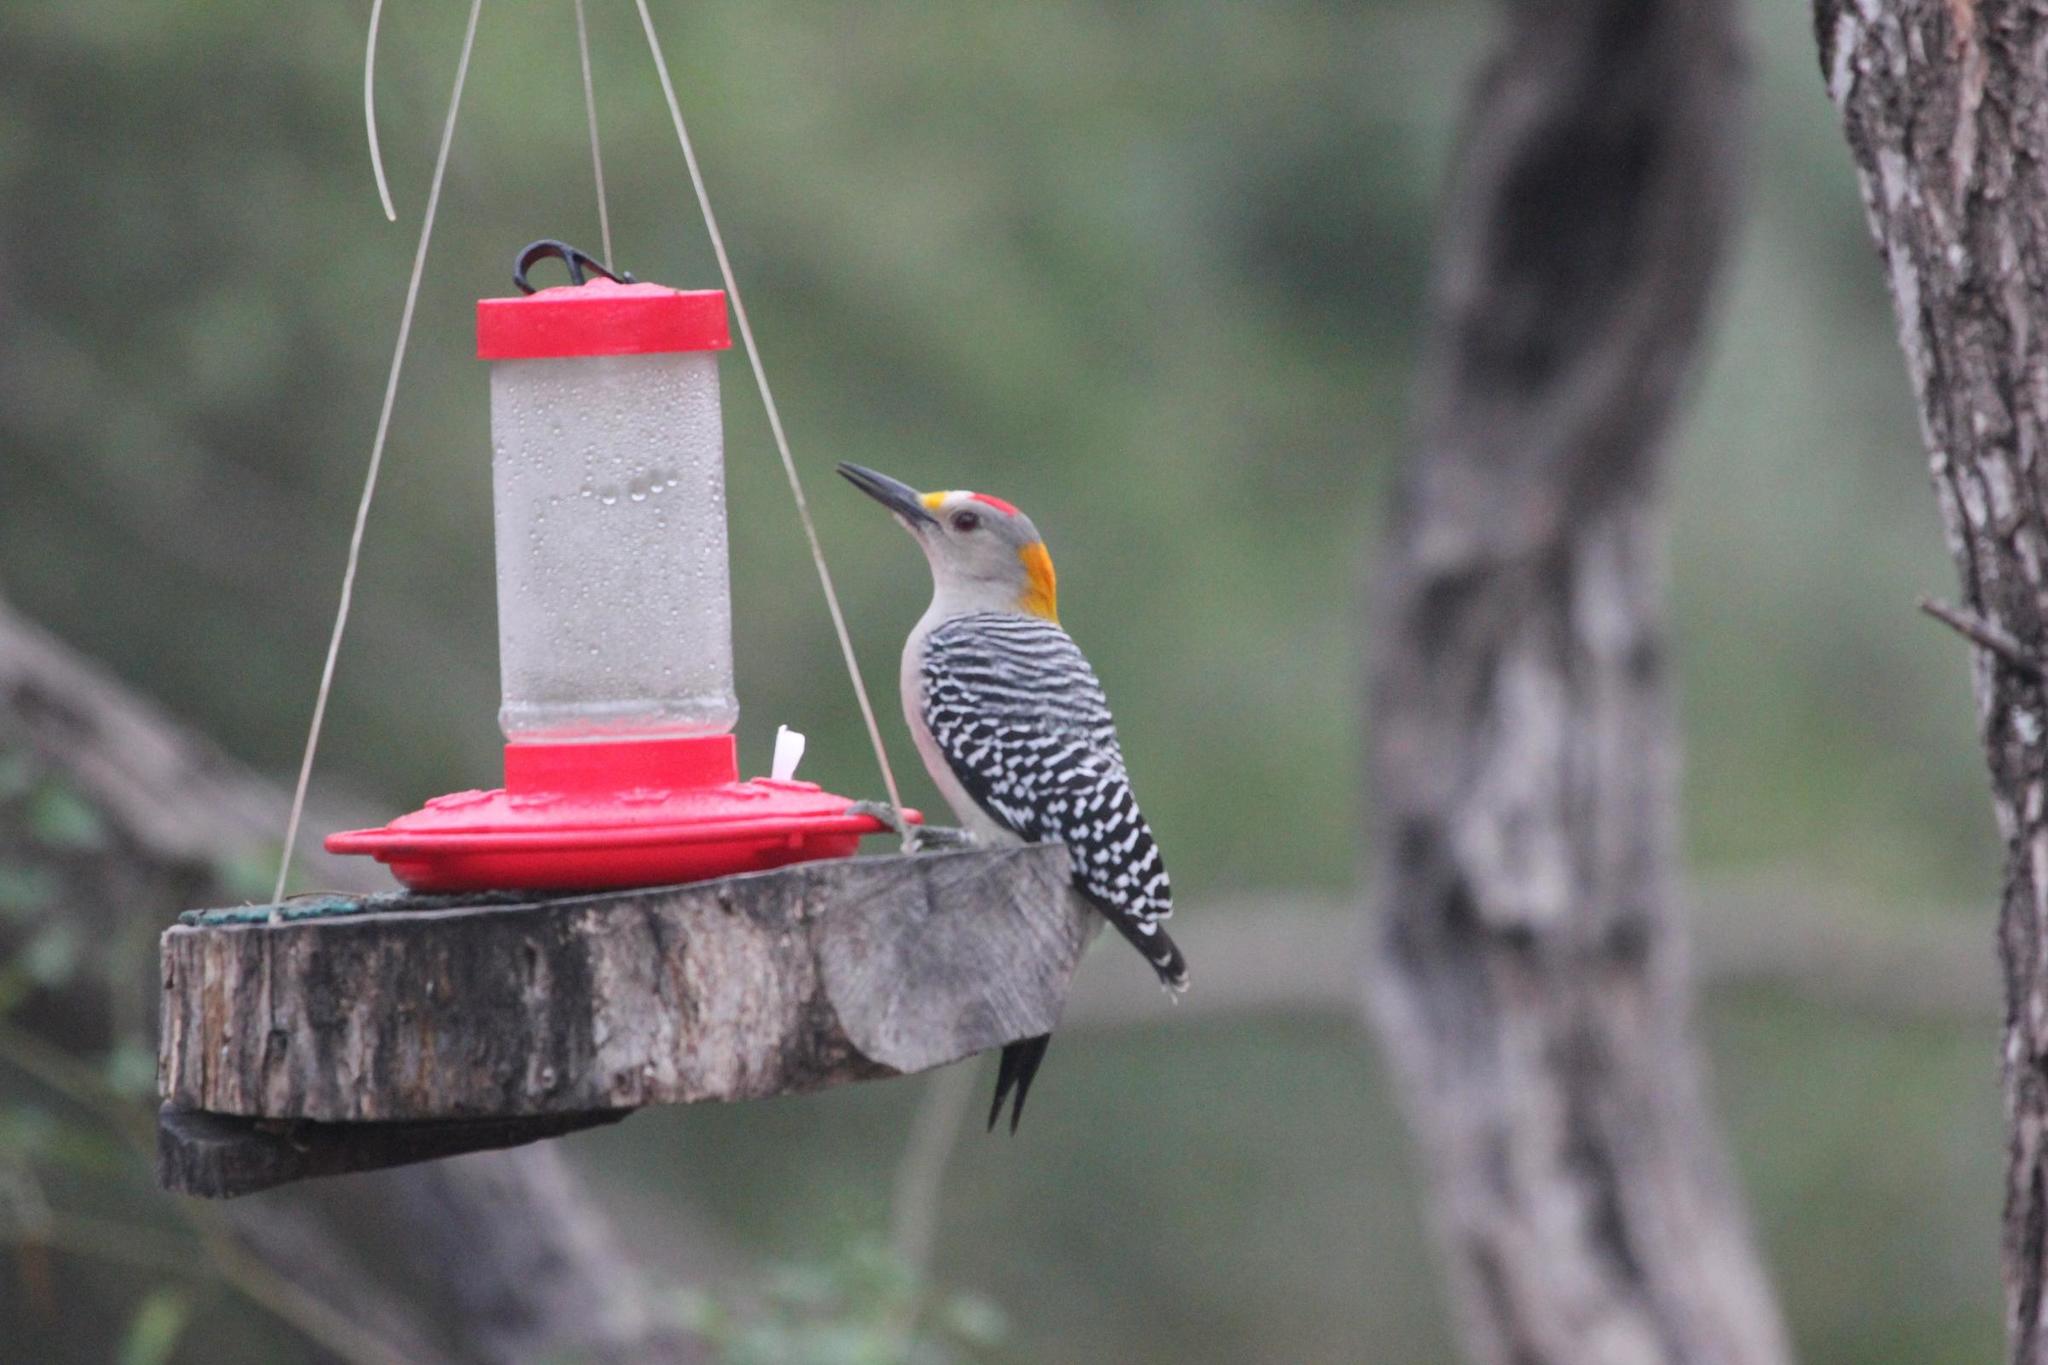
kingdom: Animalia
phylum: Chordata
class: Aves
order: Piciformes
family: Picidae
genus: Melanerpes
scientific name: Melanerpes aurifrons
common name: Golden-fronted woodpecker
